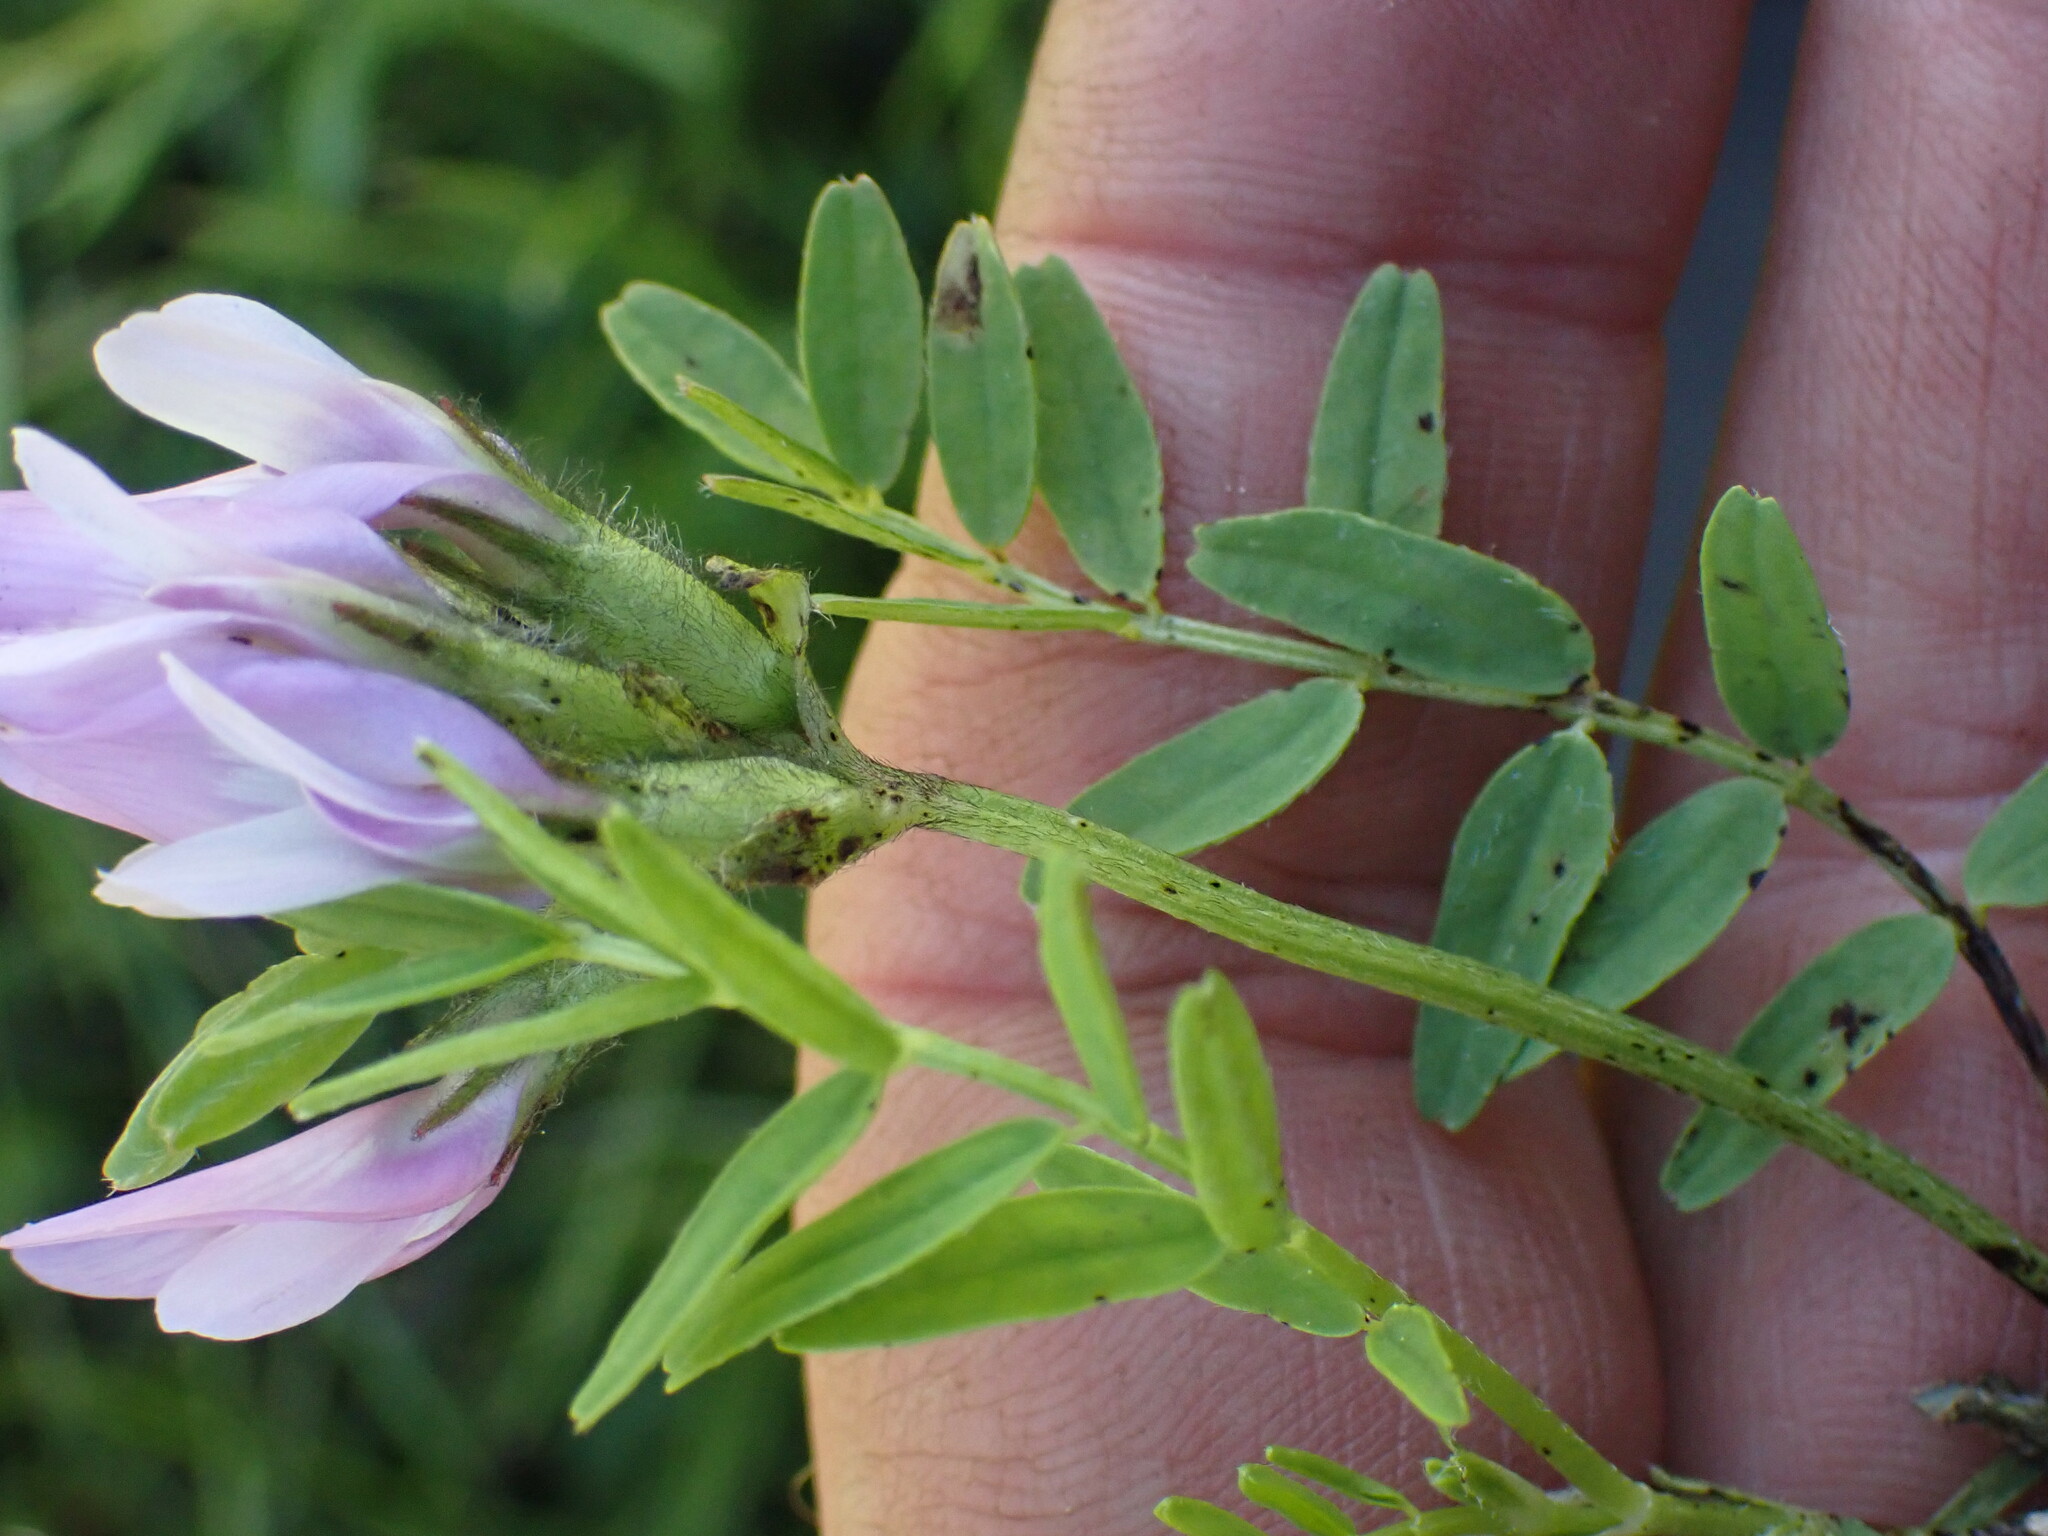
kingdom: Plantae
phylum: Tracheophyta
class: Magnoliopsida
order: Fabales
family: Fabaceae
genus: Astragalus
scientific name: Astragalus agrestis
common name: Field milk-vetch
